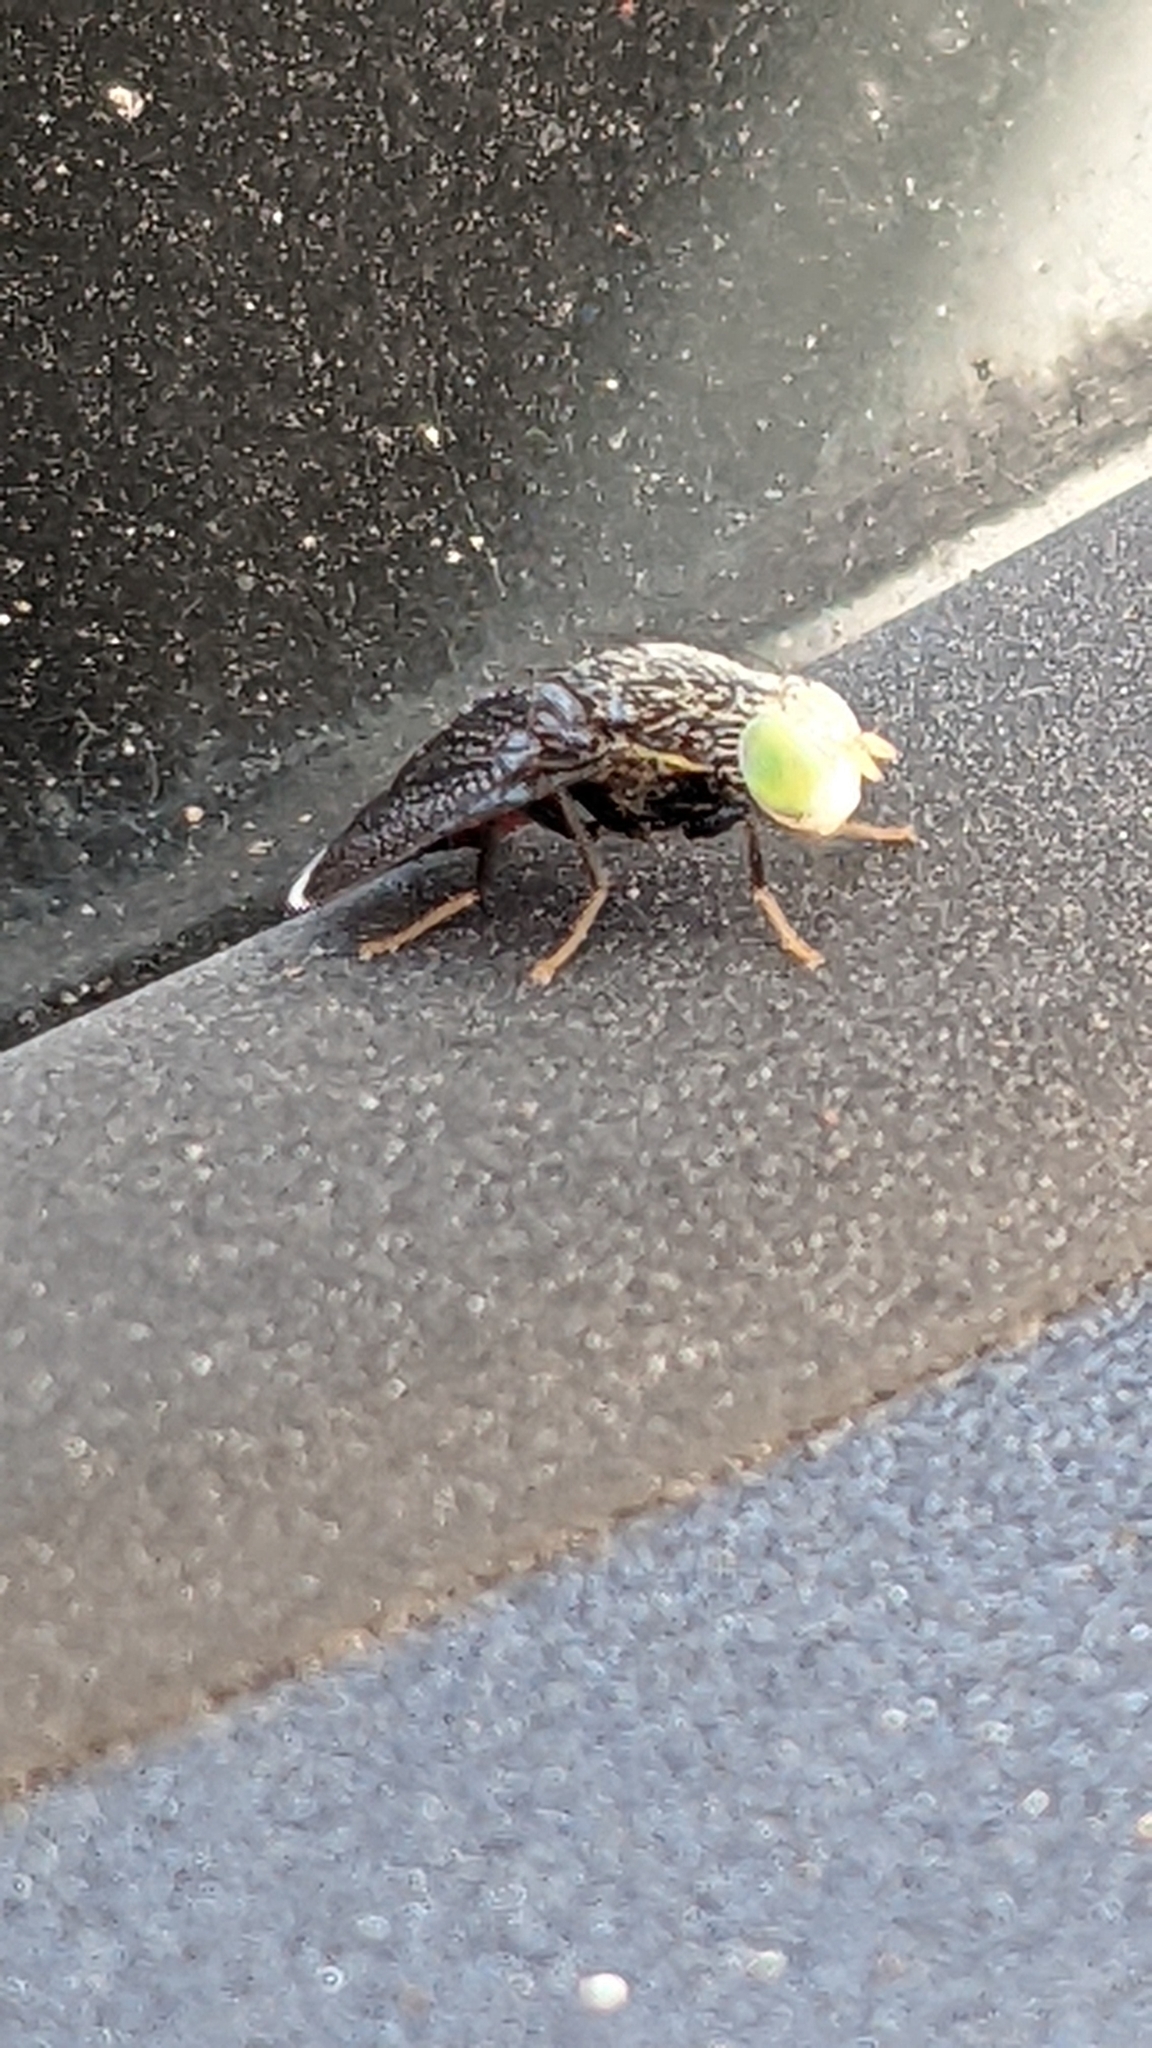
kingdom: Animalia
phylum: Arthropoda
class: Insecta
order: Diptera
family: Tephritidae
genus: Eutreta
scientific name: Eutreta diana
